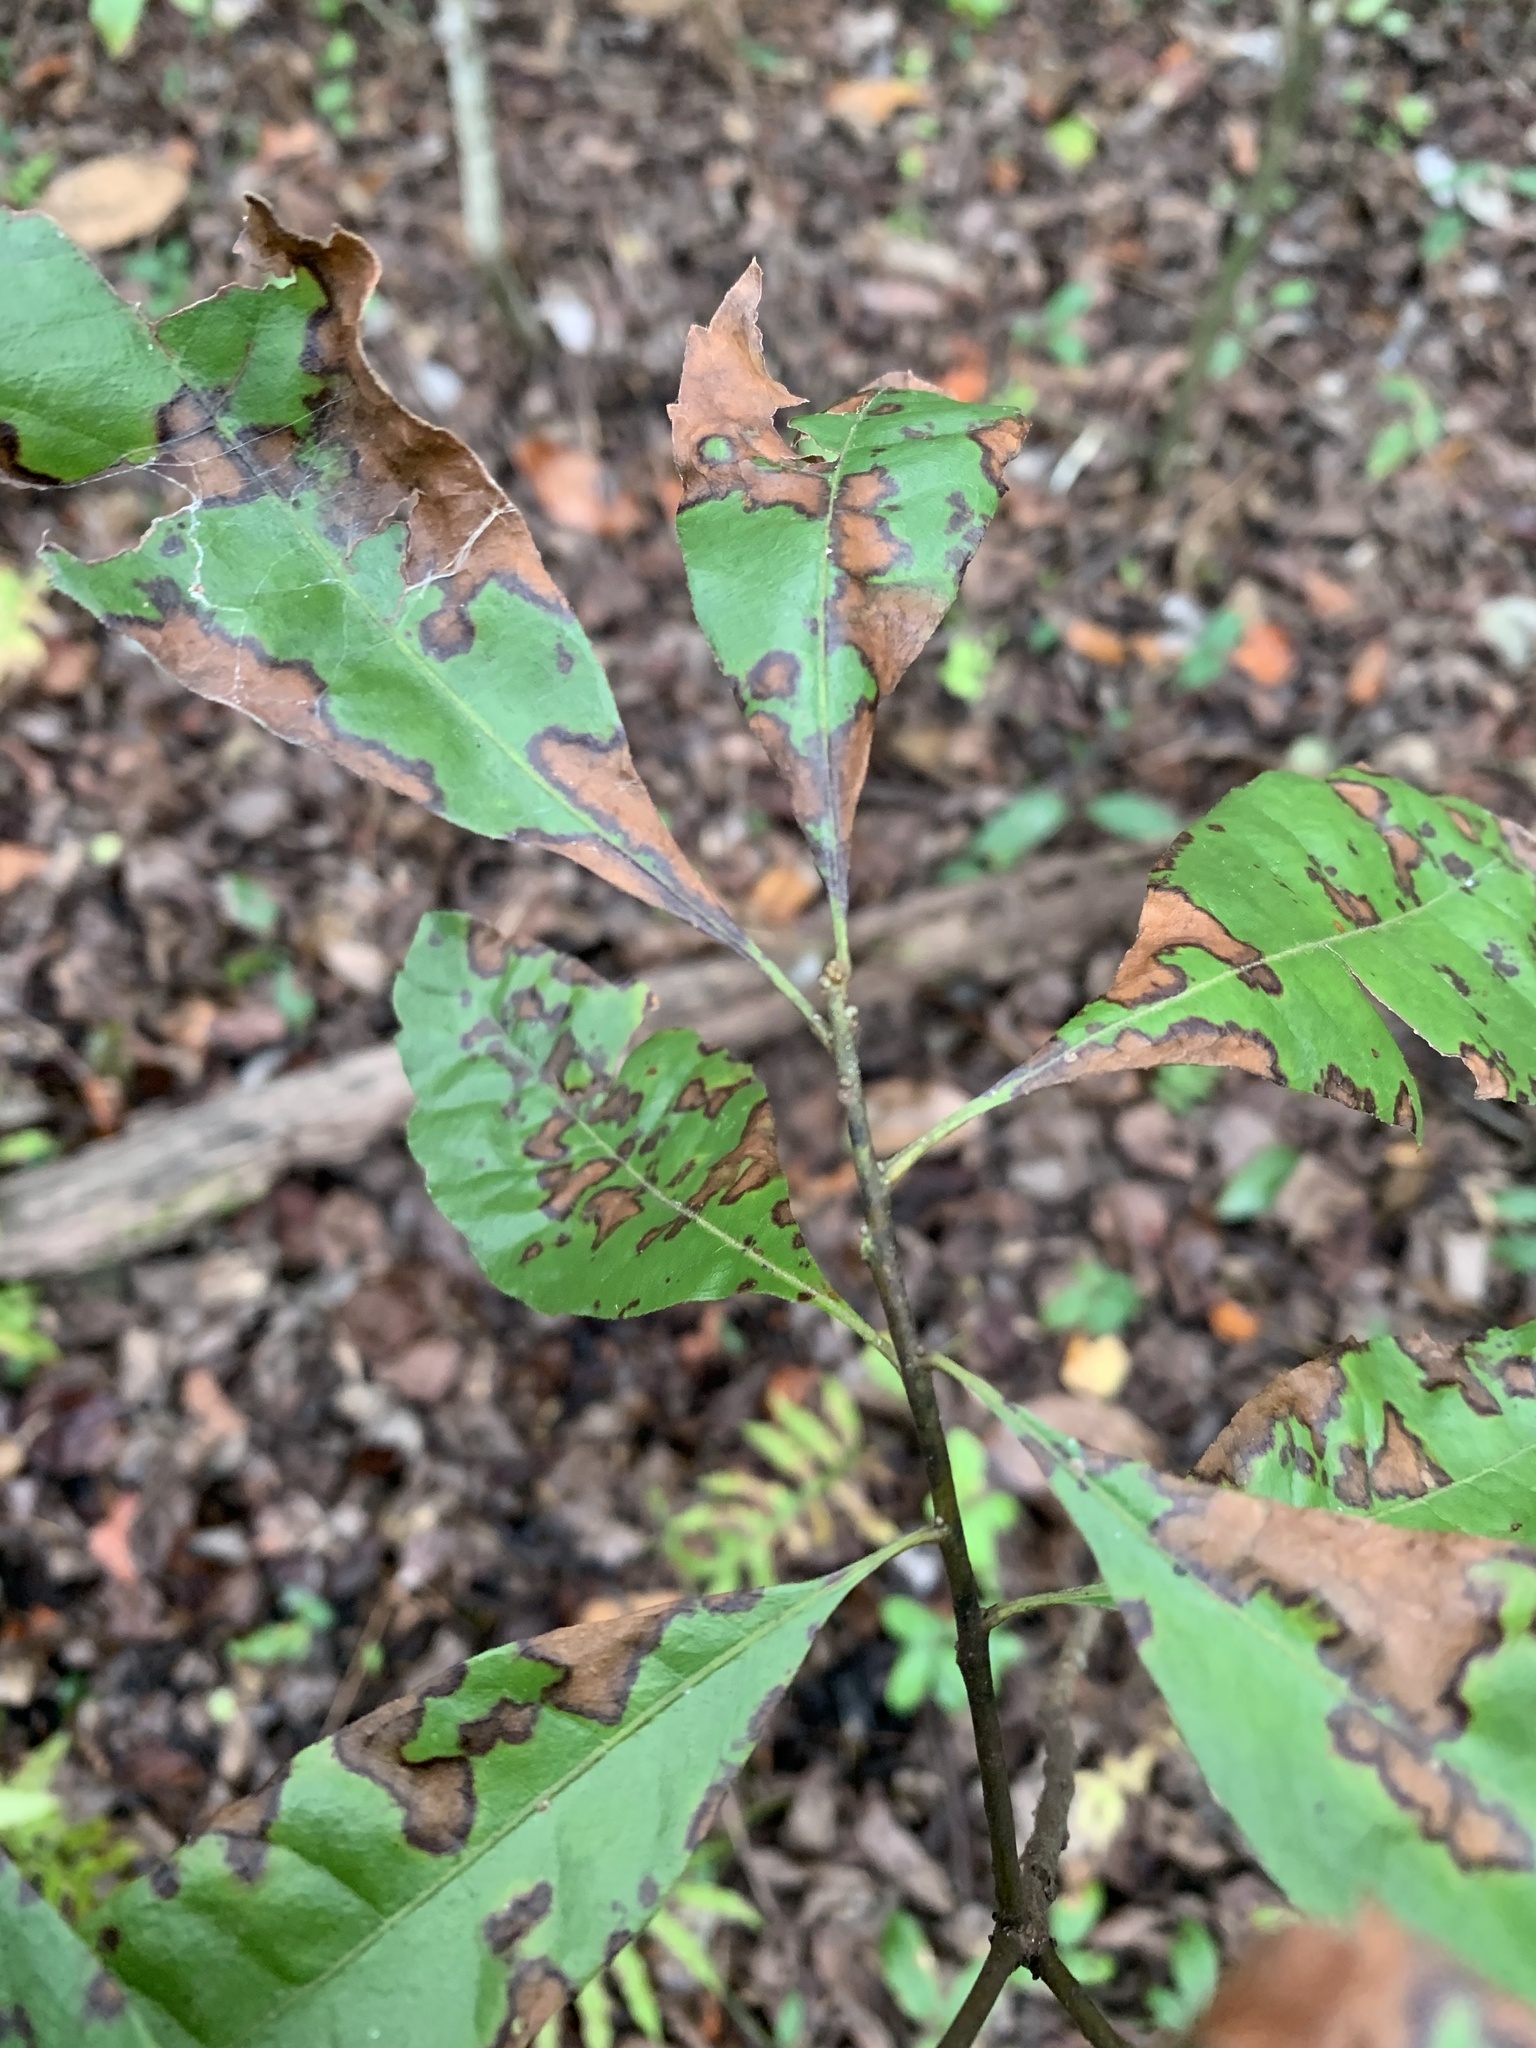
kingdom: Plantae
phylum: Tracheophyta
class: Magnoliopsida
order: Fagales
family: Myricaceae
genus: Morella
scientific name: Morella caroliniensis
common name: Evergreen bayberry
